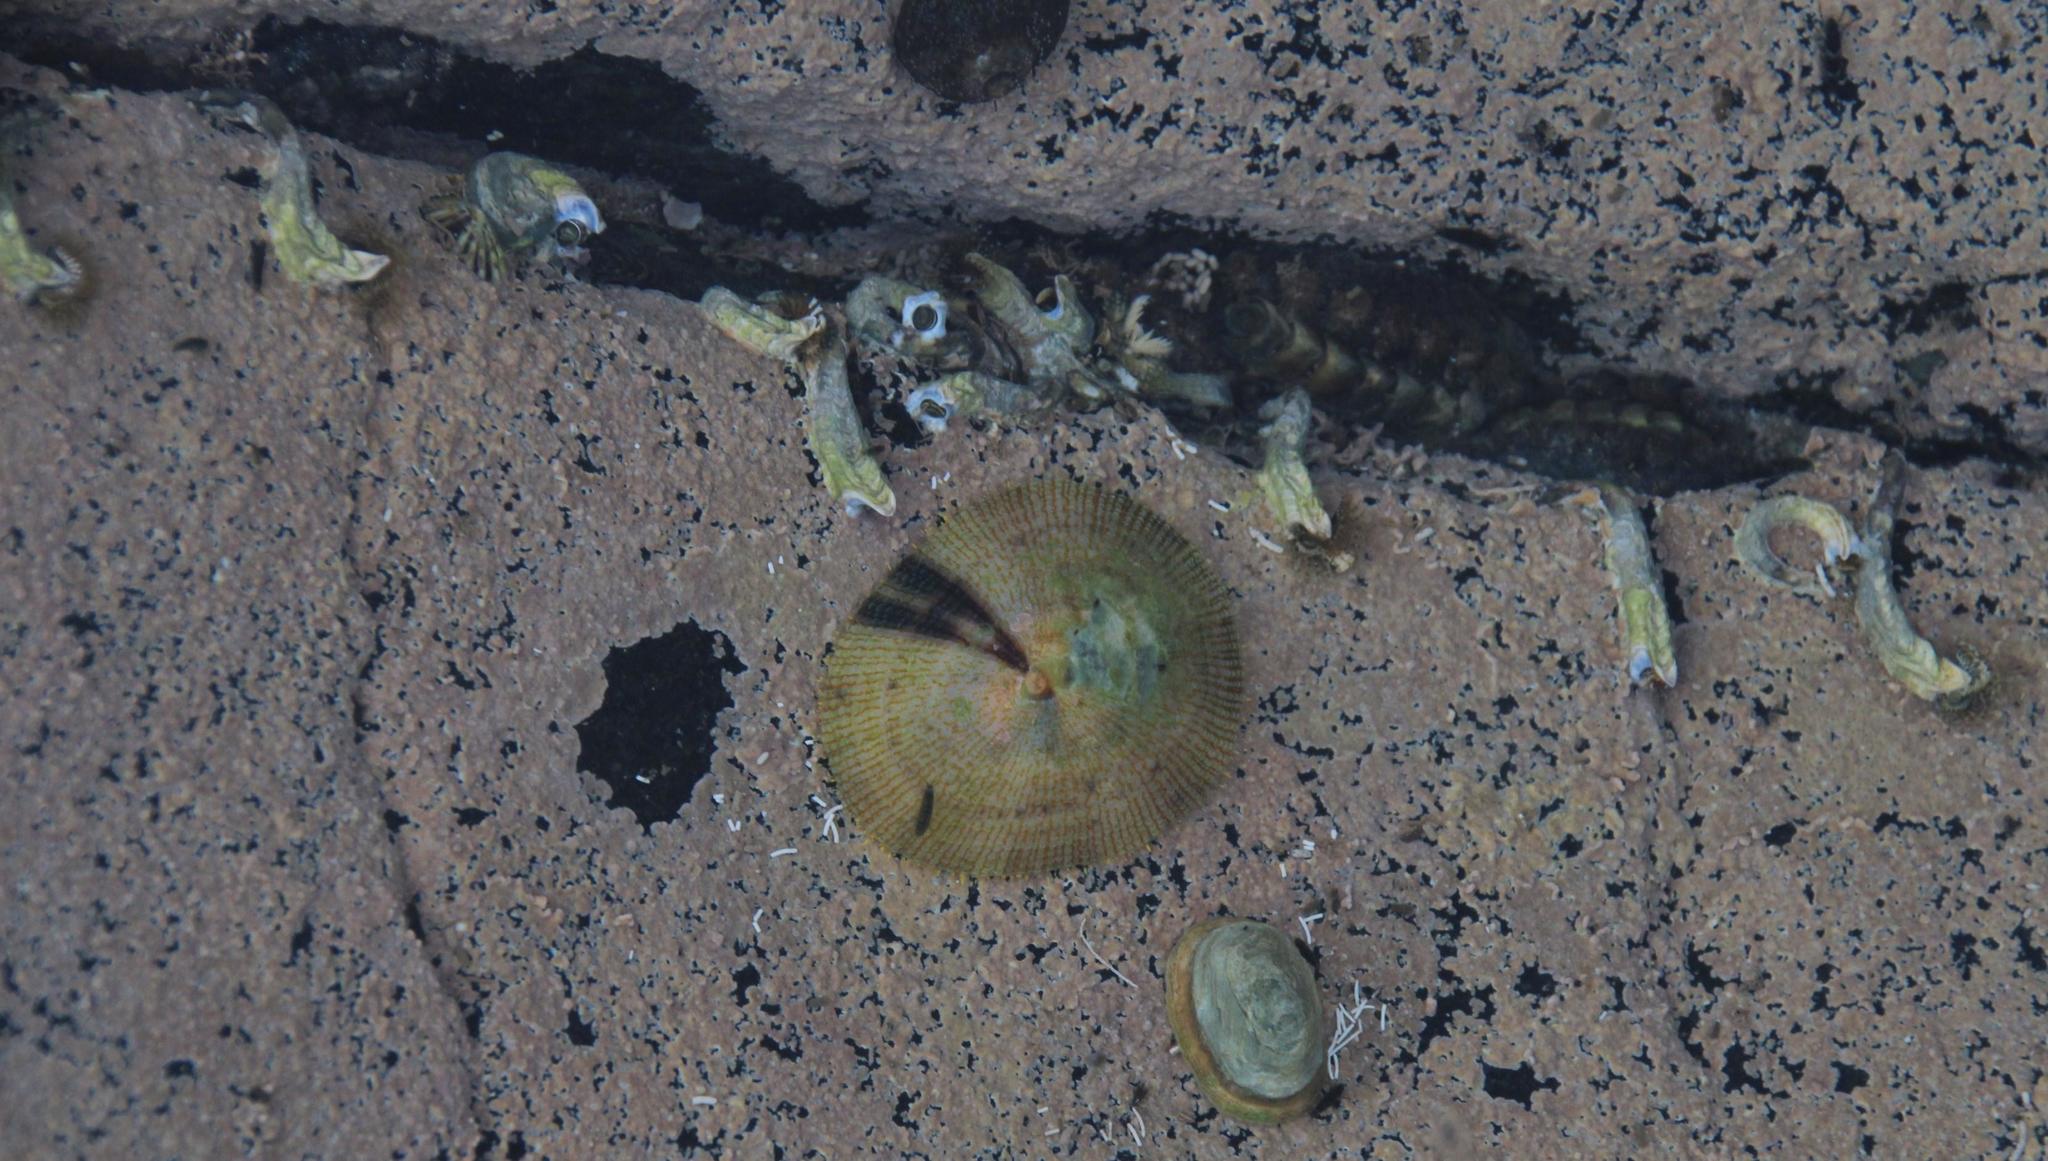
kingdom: Animalia
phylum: Mollusca
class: Gastropoda
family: Nacellidae
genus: Cellana
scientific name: Cellana capensis
